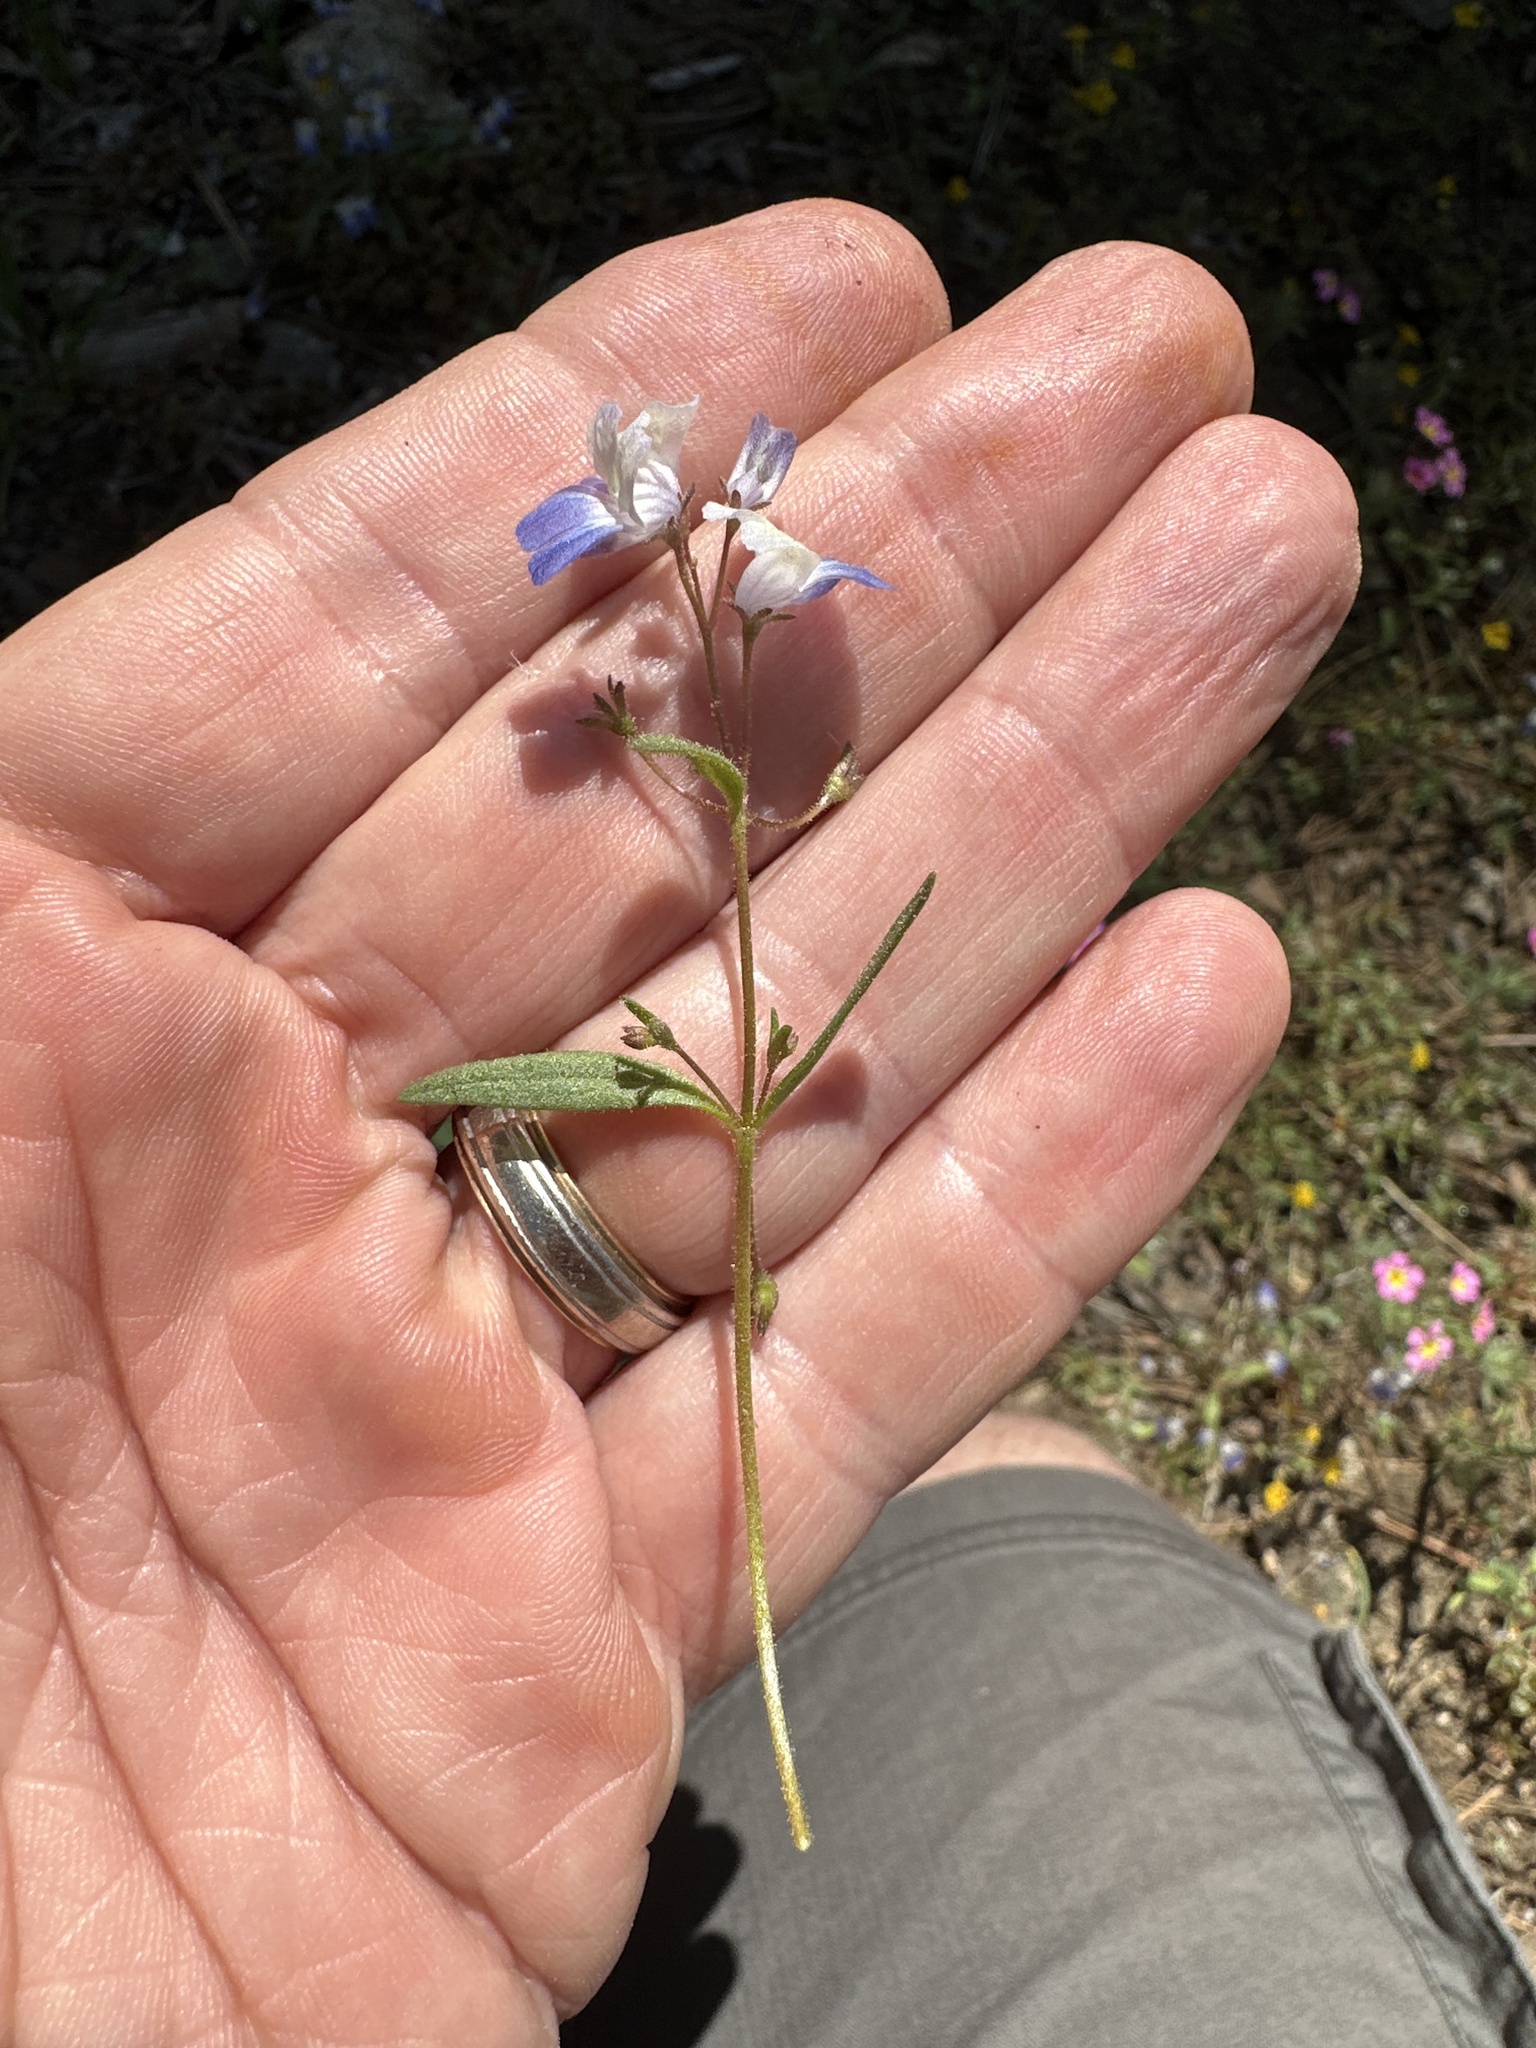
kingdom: Plantae
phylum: Tracheophyta
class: Magnoliopsida
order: Lamiales
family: Plantaginaceae
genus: Collinsia
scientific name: Collinsia torreyi
